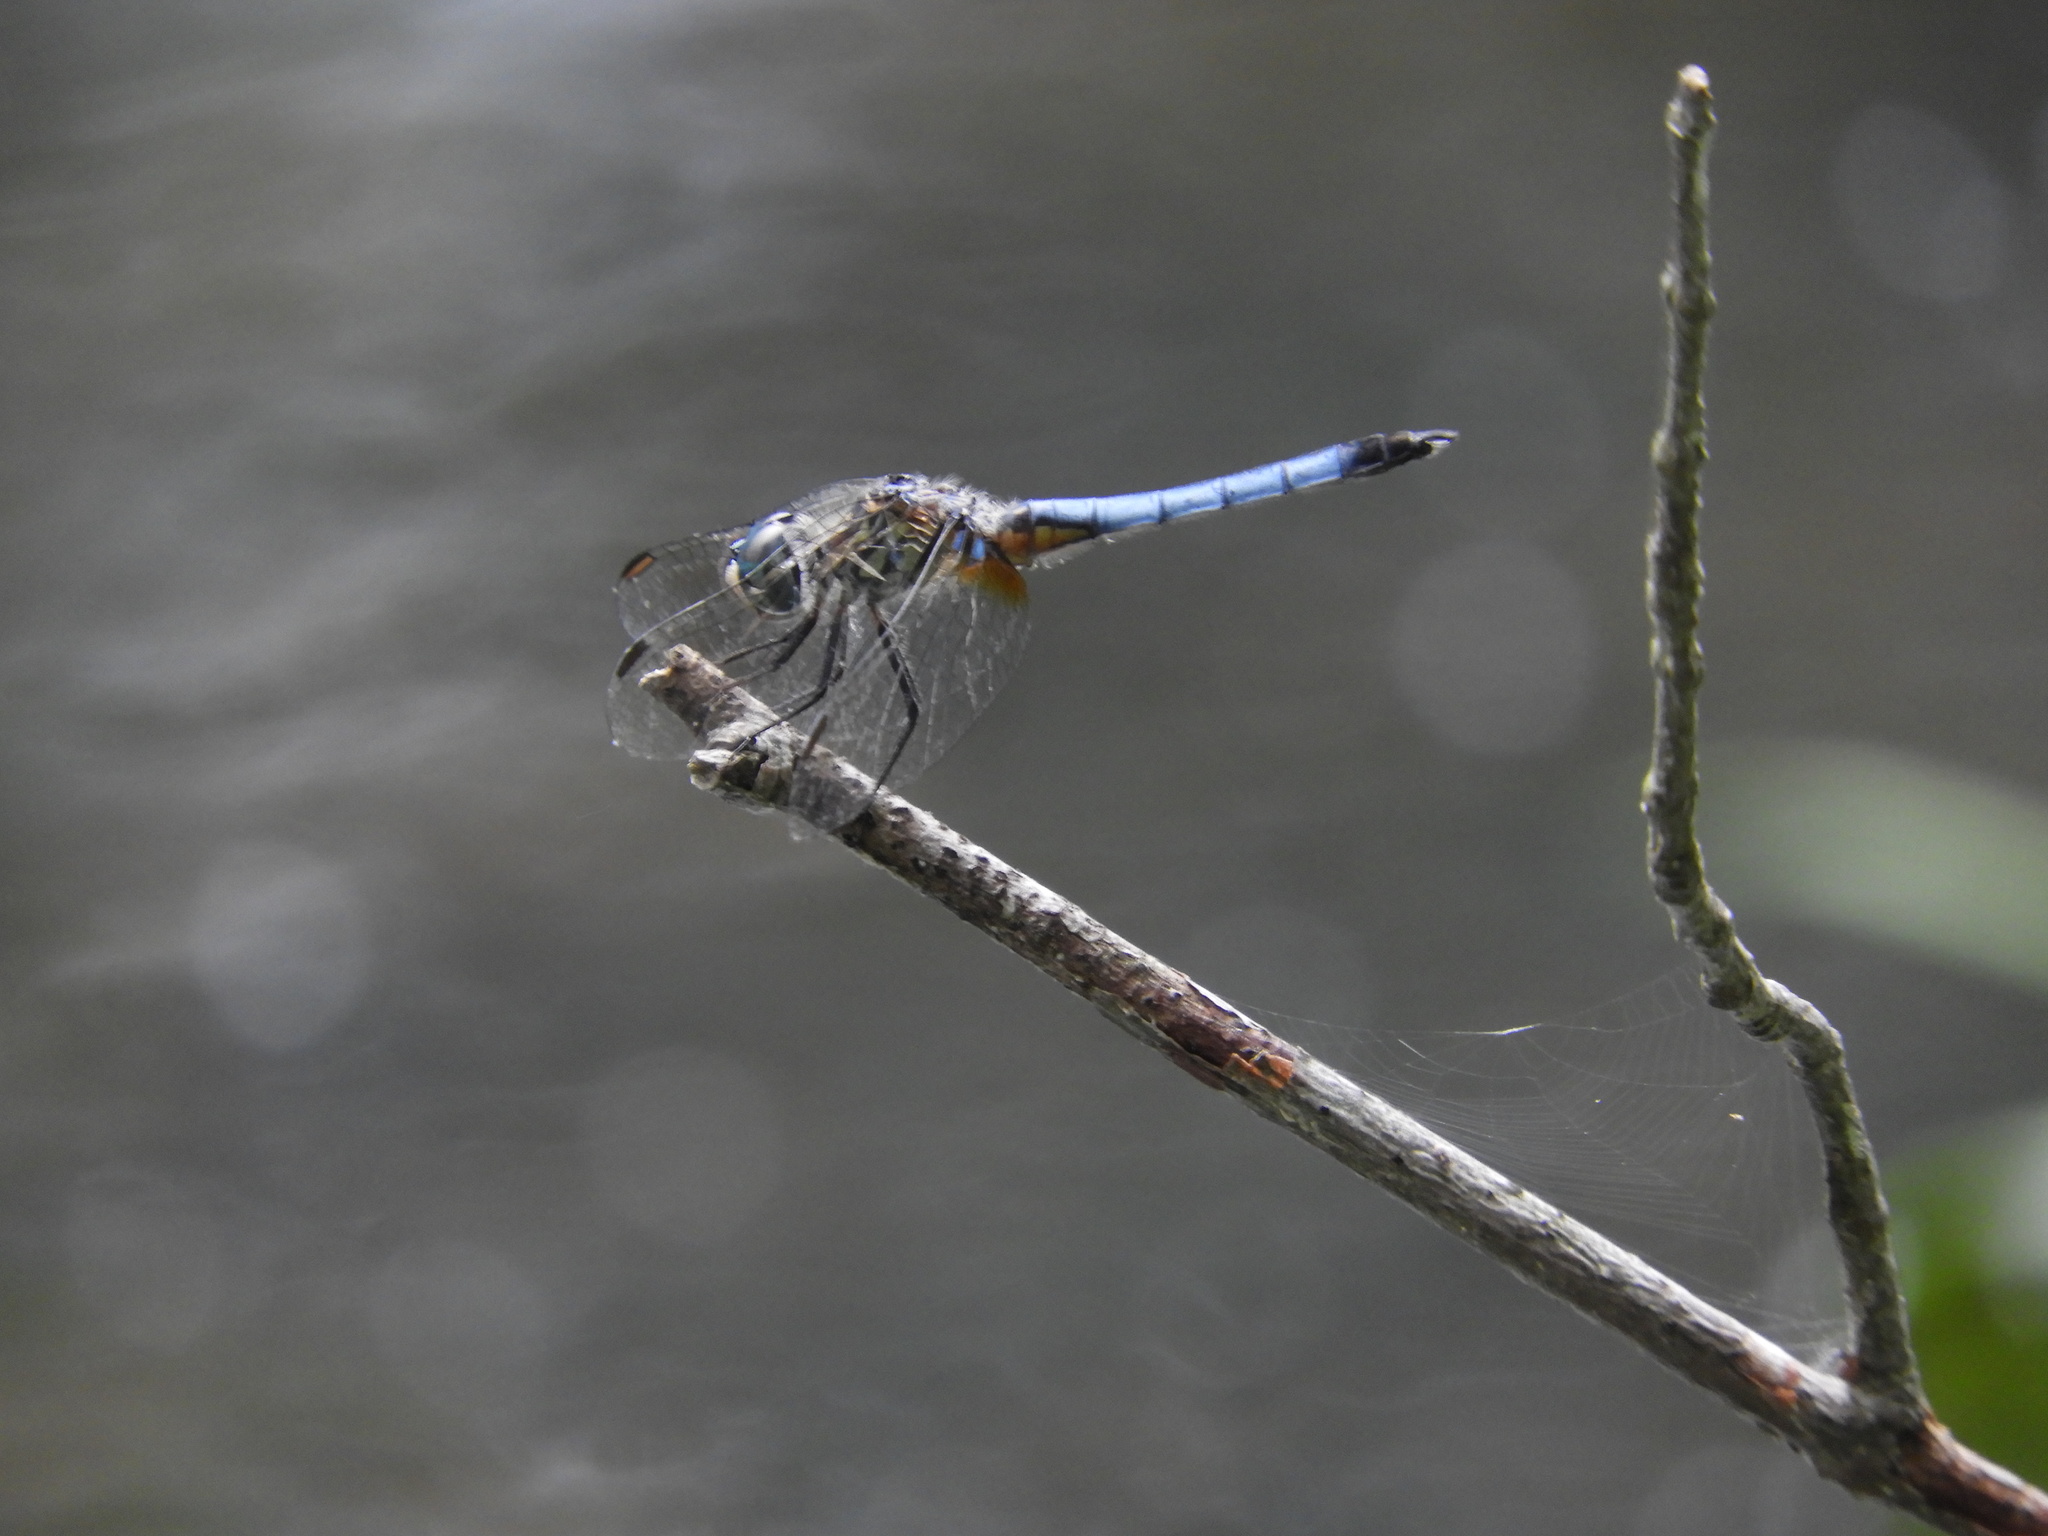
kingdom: Animalia
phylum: Arthropoda
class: Insecta
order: Odonata
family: Libellulidae
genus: Pachydiplax
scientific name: Pachydiplax longipennis
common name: Blue dasher
